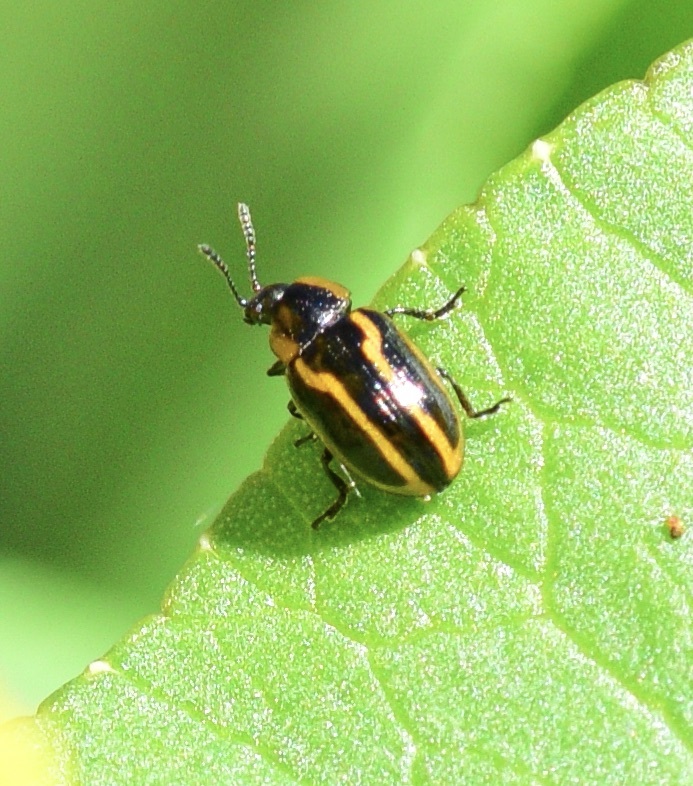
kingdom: Animalia
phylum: Arthropoda
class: Insecta
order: Coleoptera
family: Chrysomelidae
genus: Prasocuris
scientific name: Prasocuris boreella
